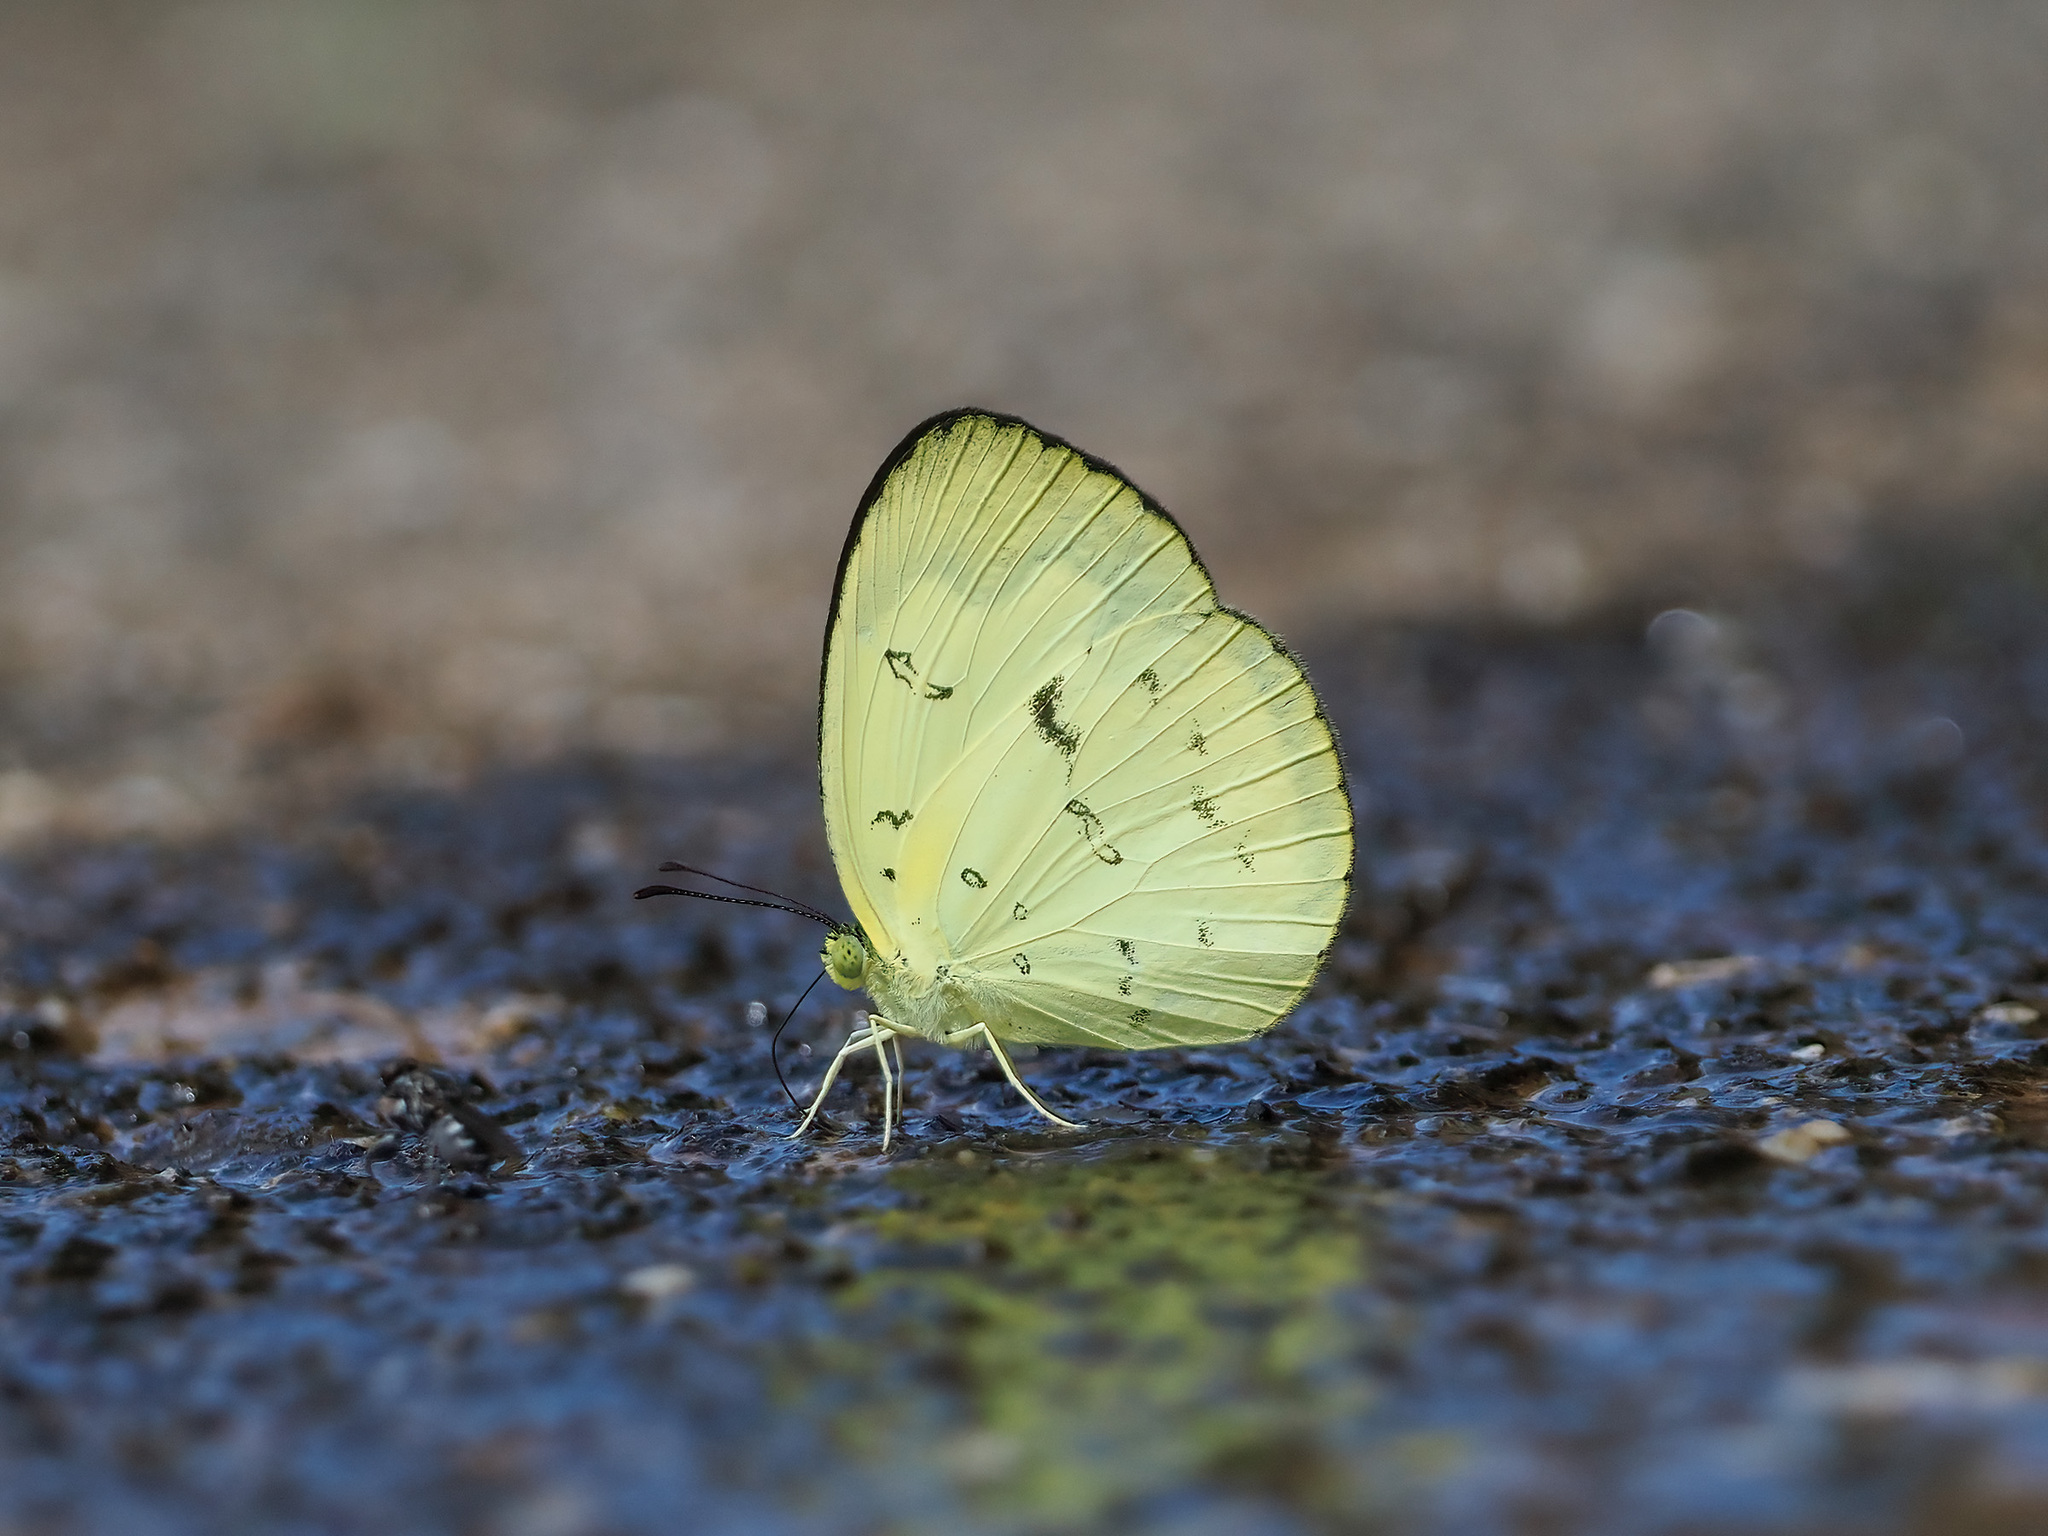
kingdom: Animalia
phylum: Arthropoda
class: Insecta
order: Lepidoptera
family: Pieridae
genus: Eurema
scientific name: Eurema ada
